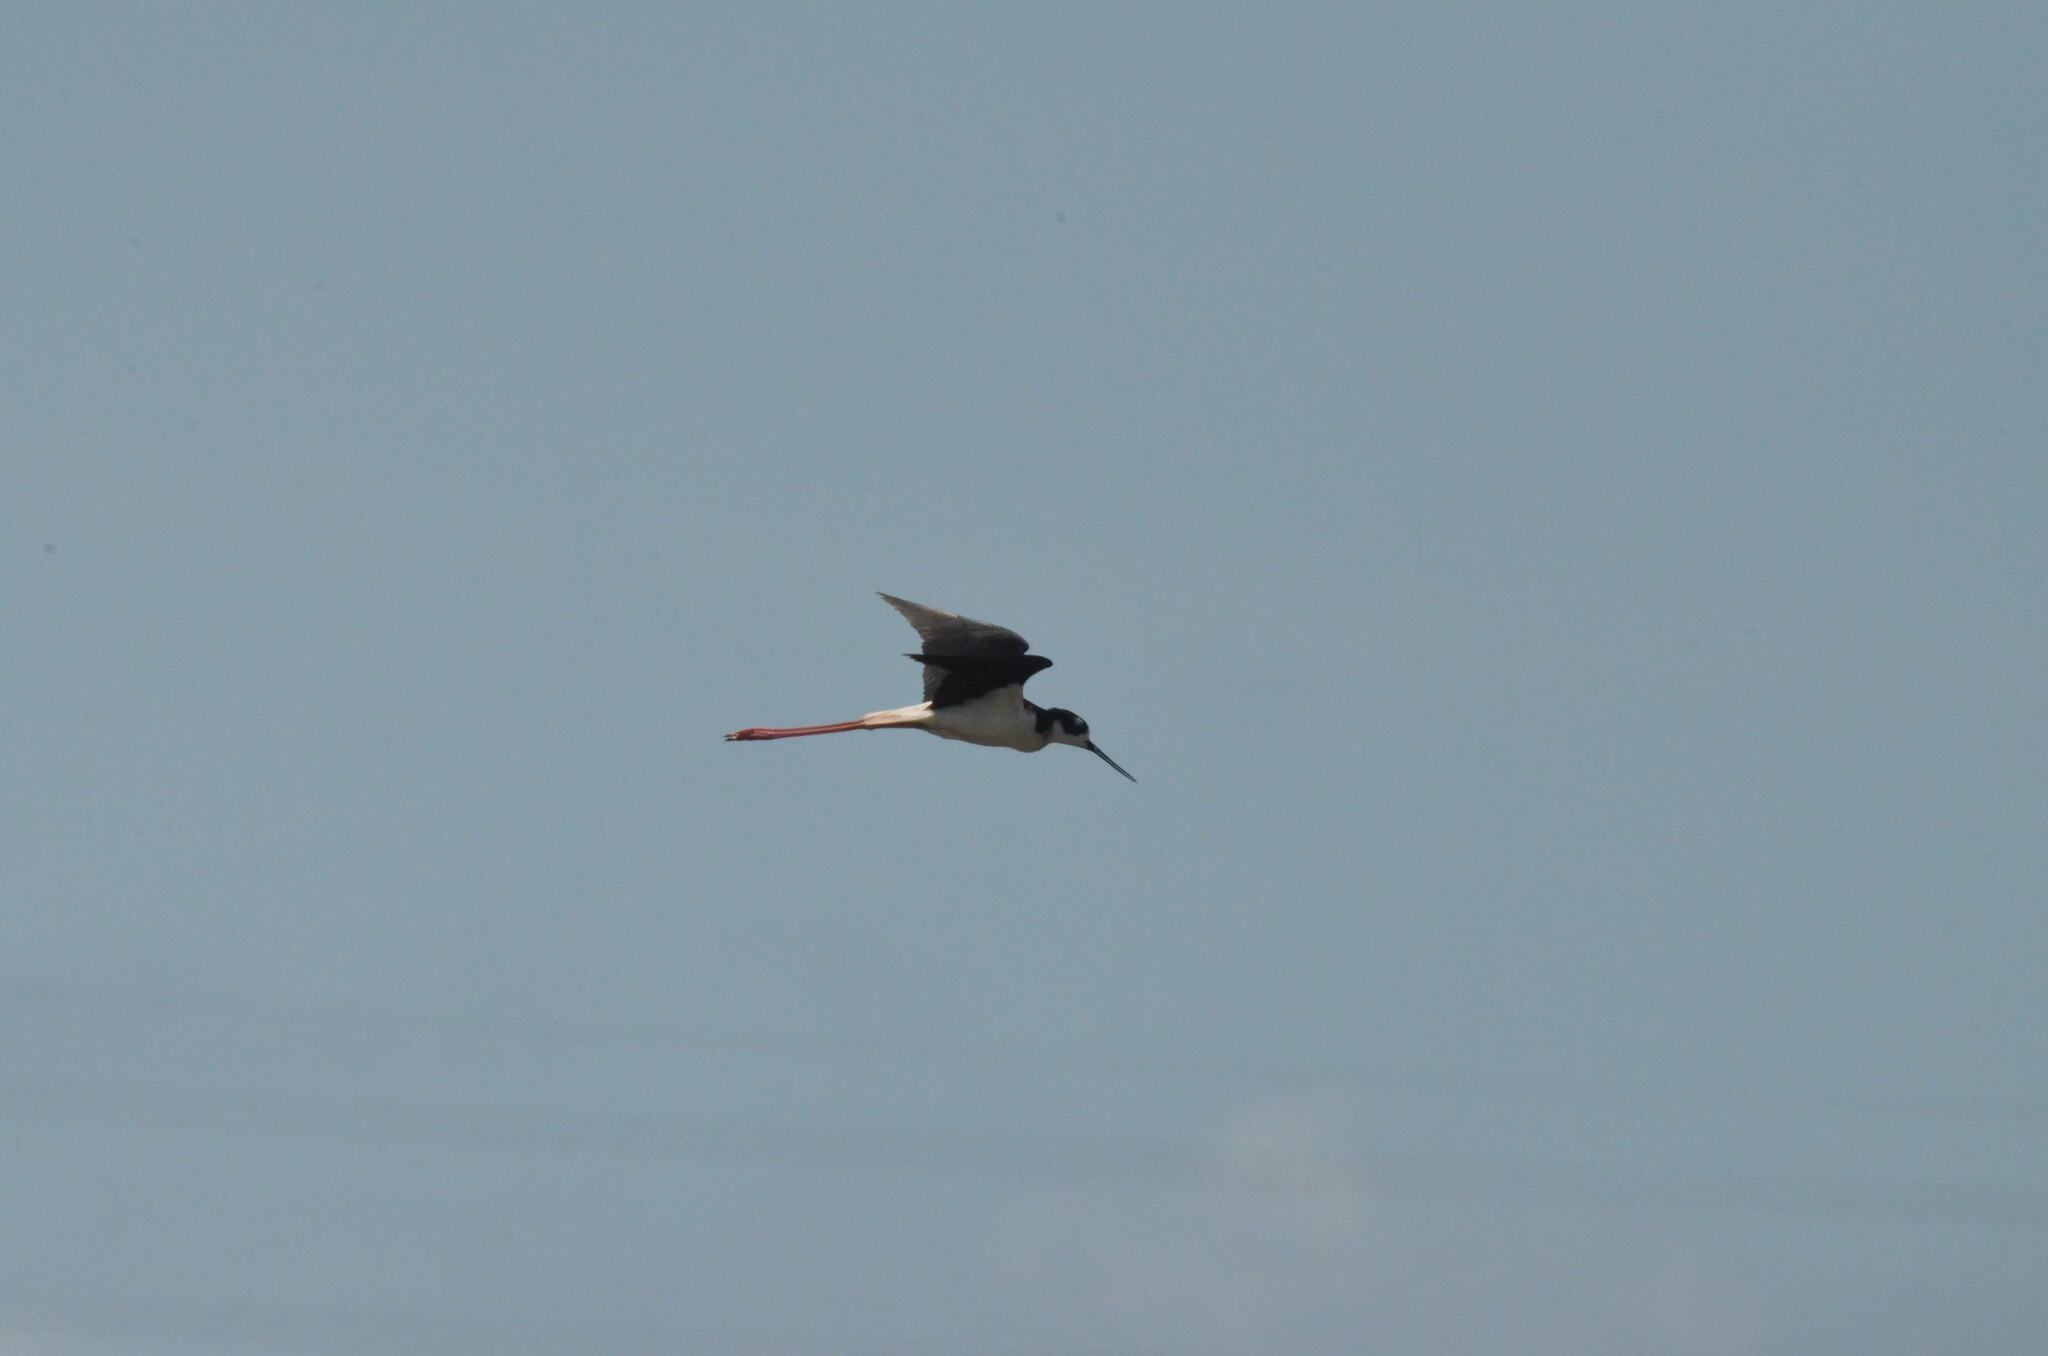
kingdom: Animalia
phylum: Chordata
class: Aves
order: Charadriiformes
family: Recurvirostridae
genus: Himantopus
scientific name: Himantopus mexicanus
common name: Black-necked stilt
